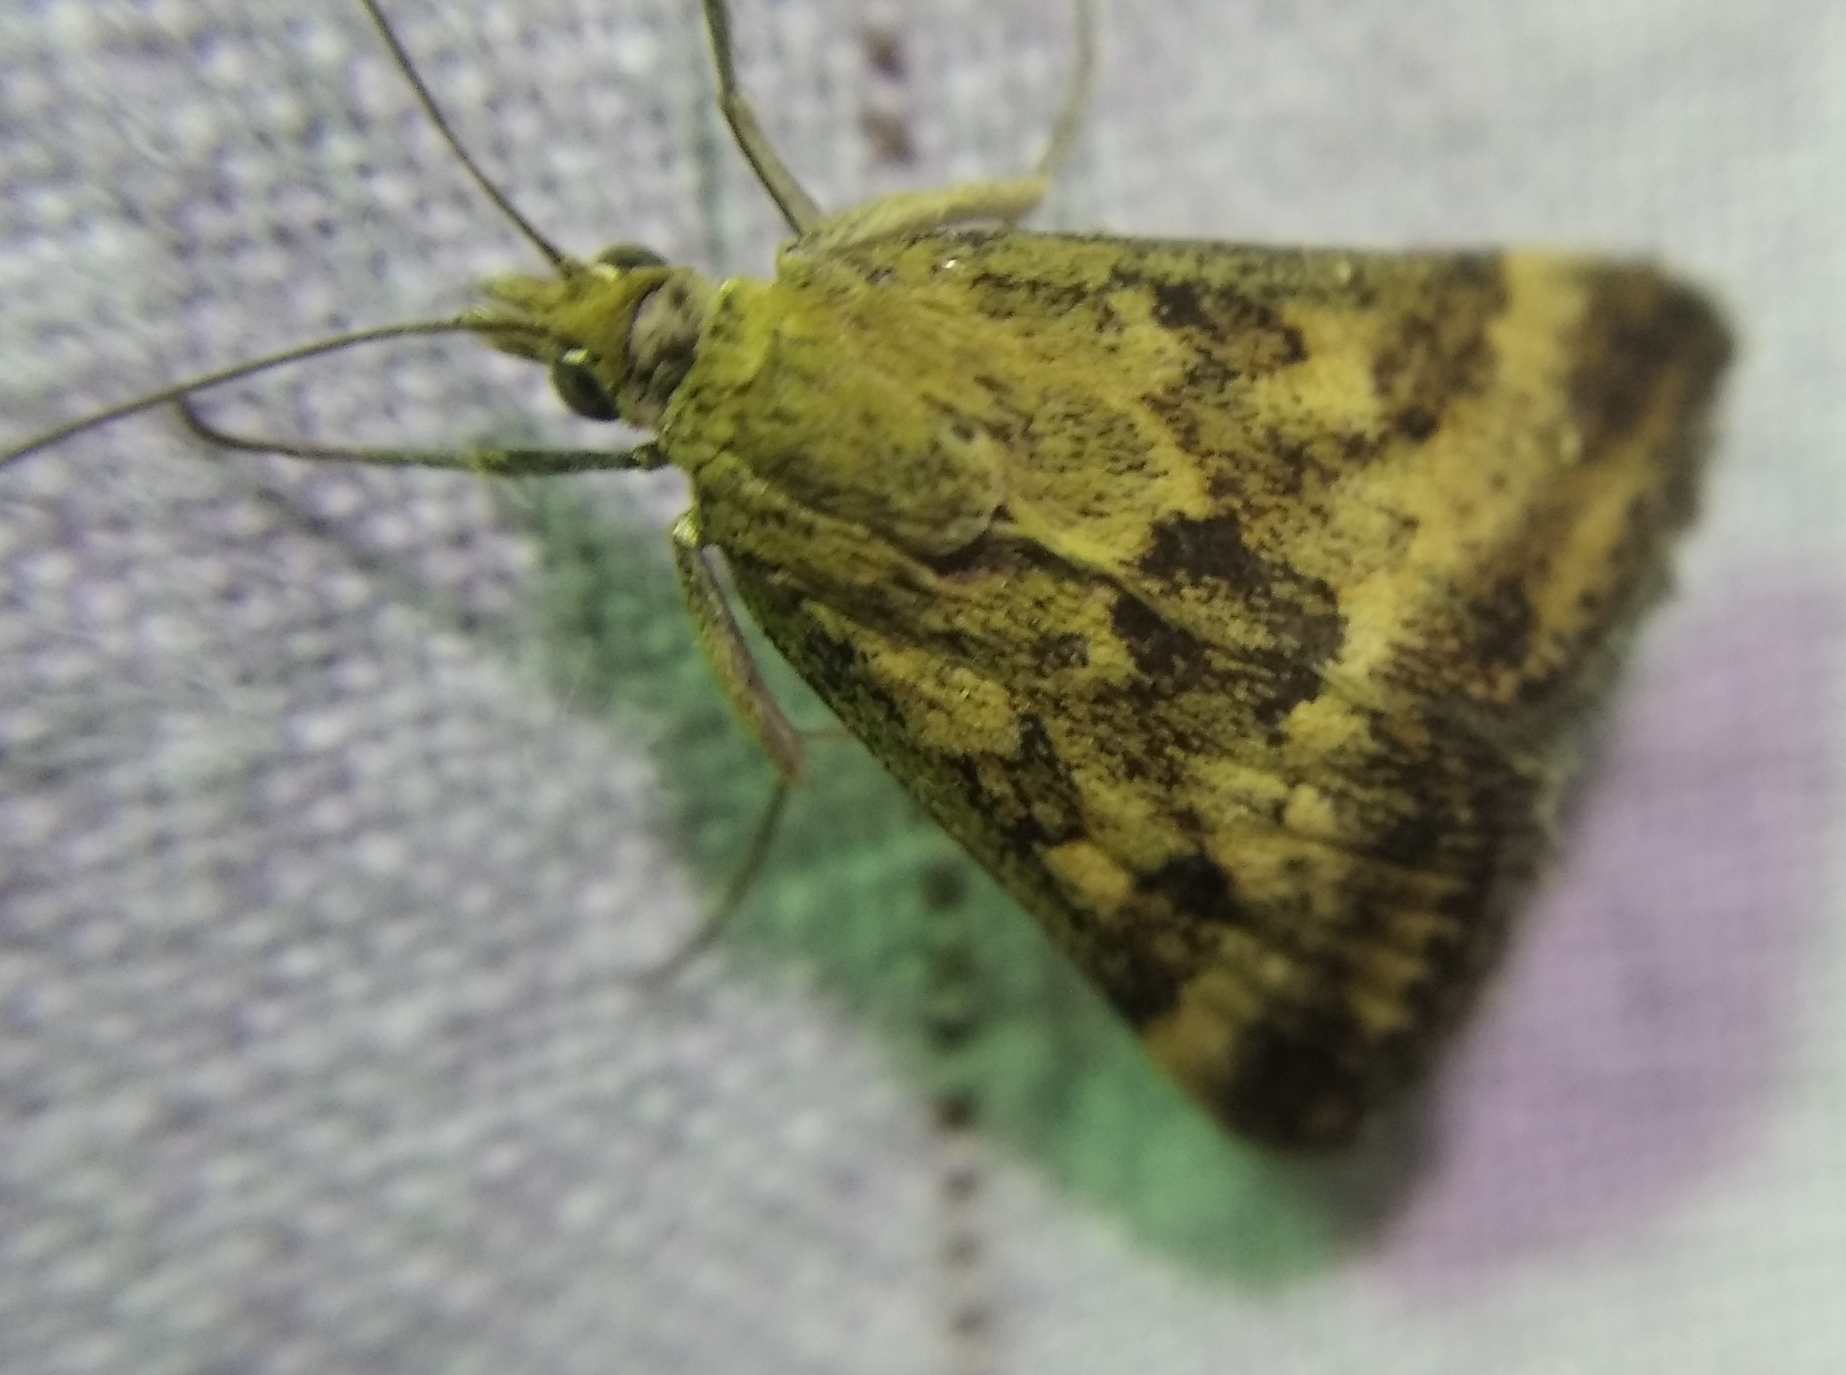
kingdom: Animalia
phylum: Arthropoda
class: Insecta
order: Lepidoptera
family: Crambidae
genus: Pyrausta
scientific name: Pyrausta despicata
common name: Straw-barred pearl
